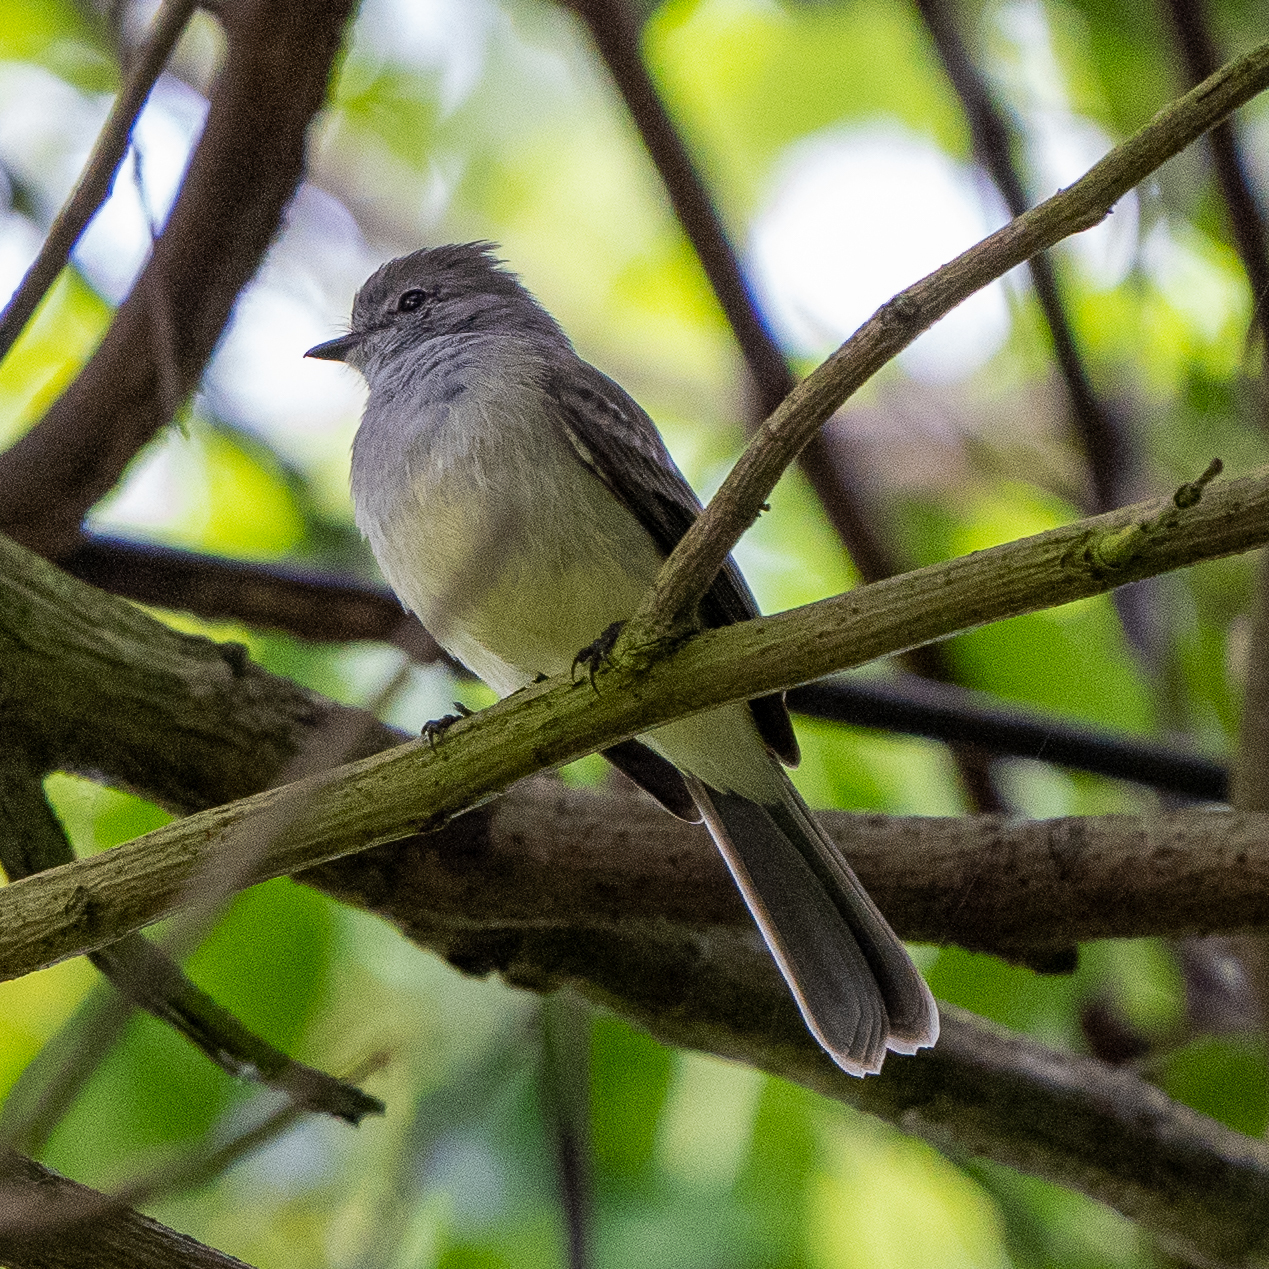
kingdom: Animalia
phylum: Chordata
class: Aves
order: Passeriformes
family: Tyrannidae
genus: Sublegatus
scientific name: Sublegatus arenarum
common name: Northern scrub-flycatcher
